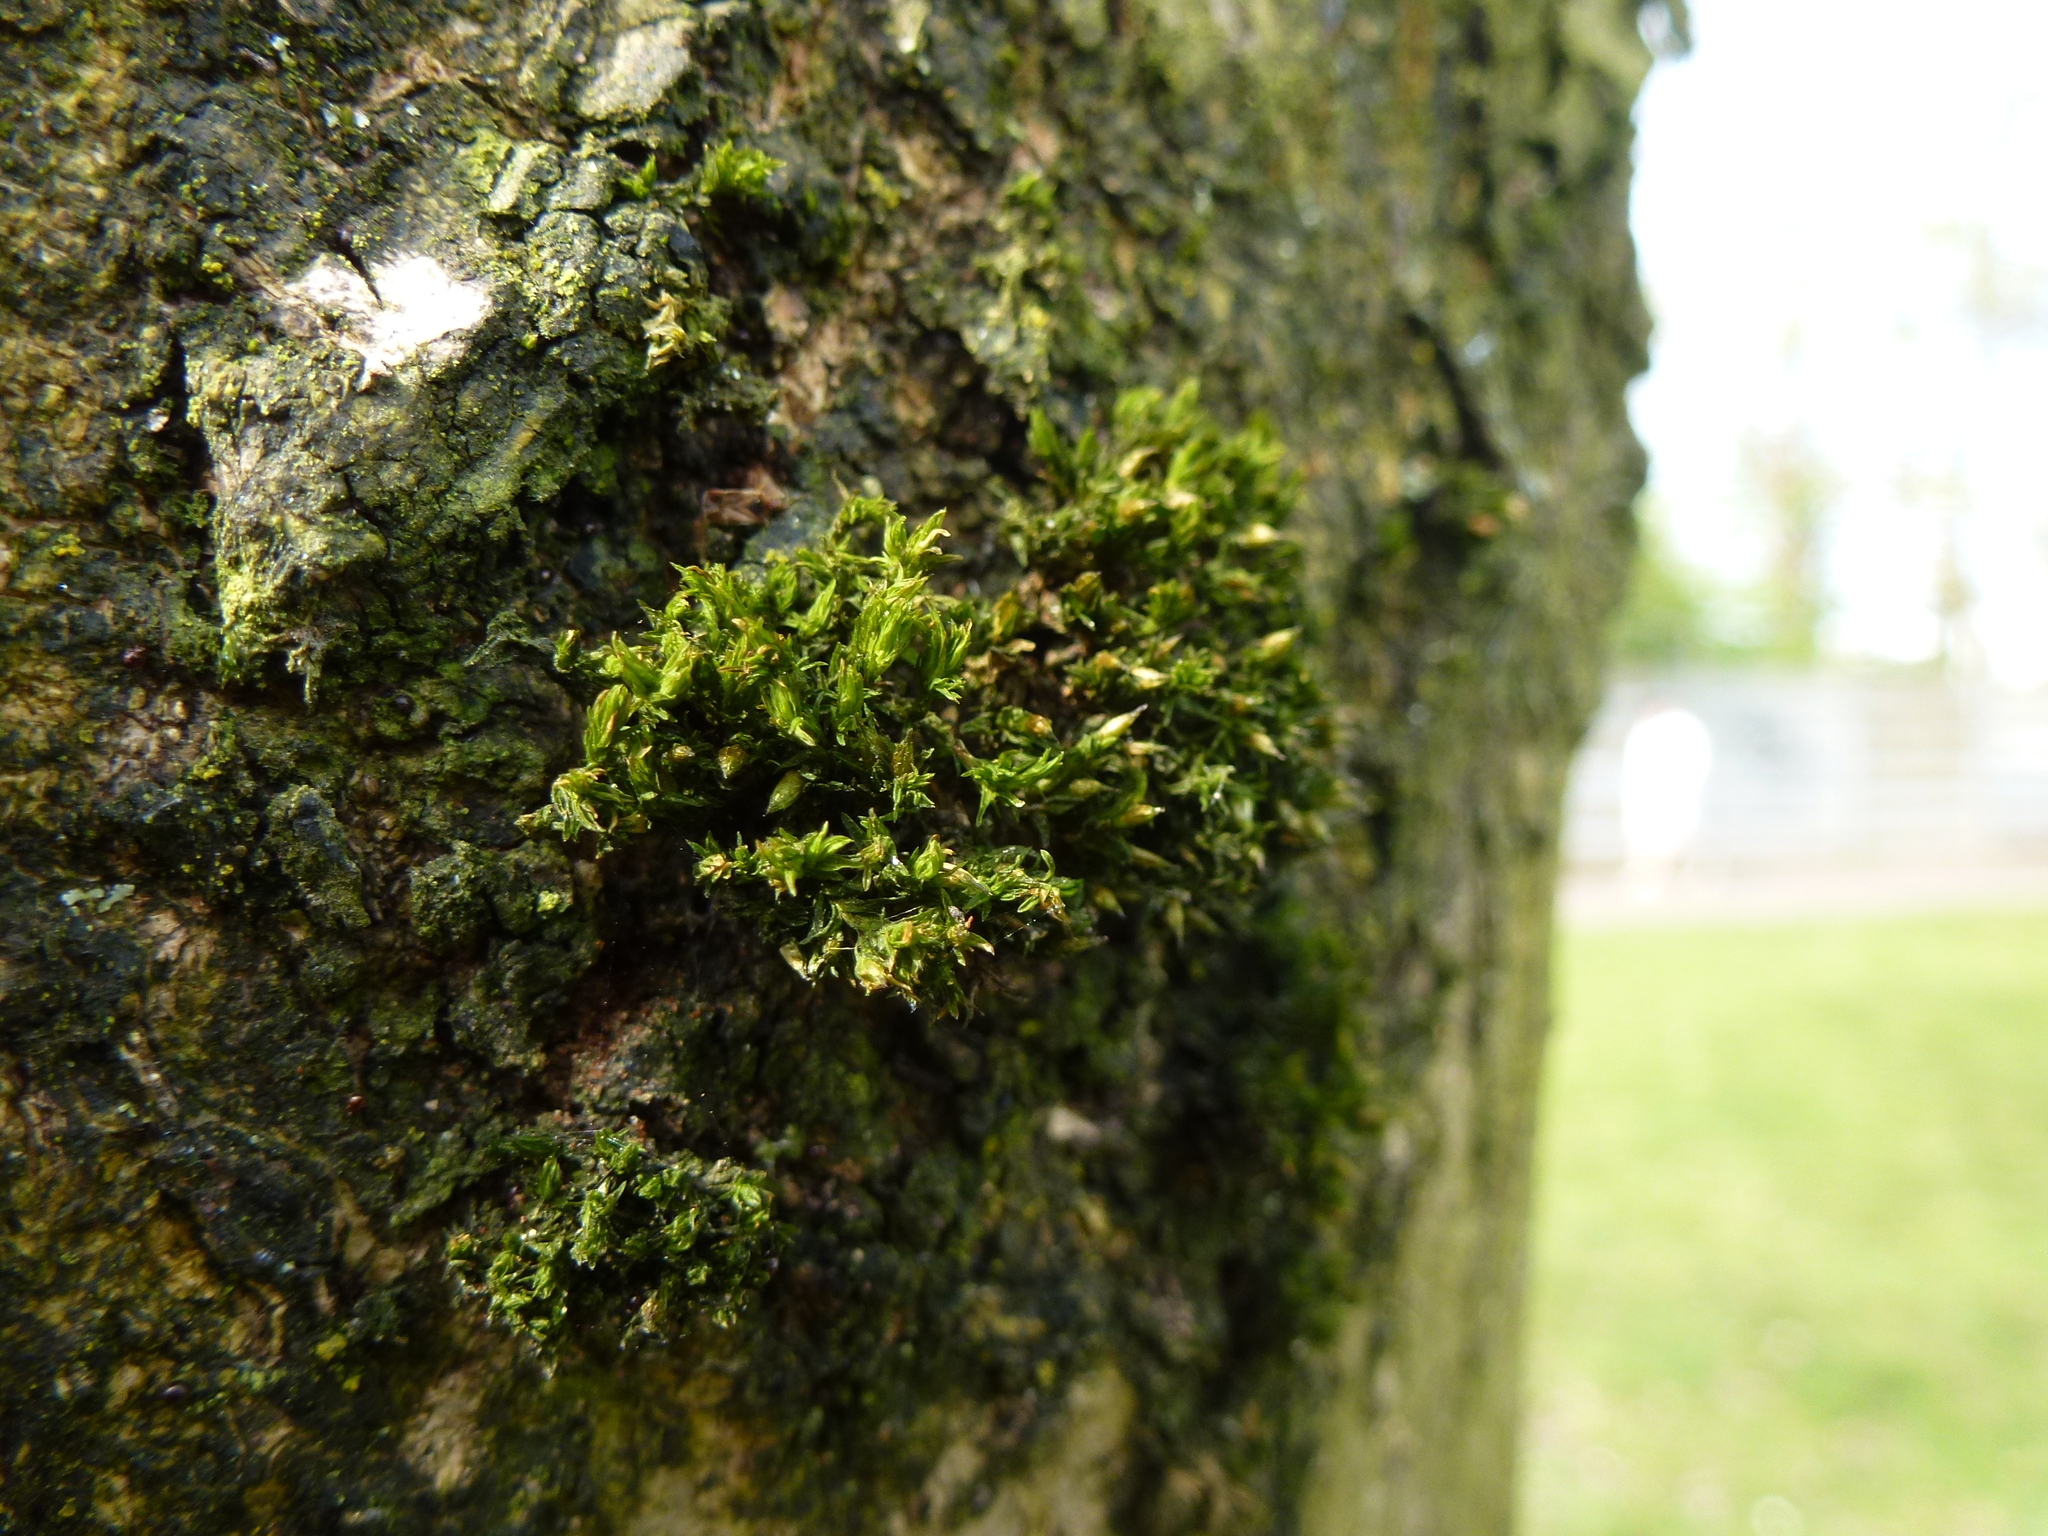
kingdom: Plantae
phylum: Bryophyta
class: Bryopsida
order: Orthotrichales
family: Orthotrichaceae
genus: Orthotrichum
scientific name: Orthotrichum tenellum
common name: Slender bristle-moss
